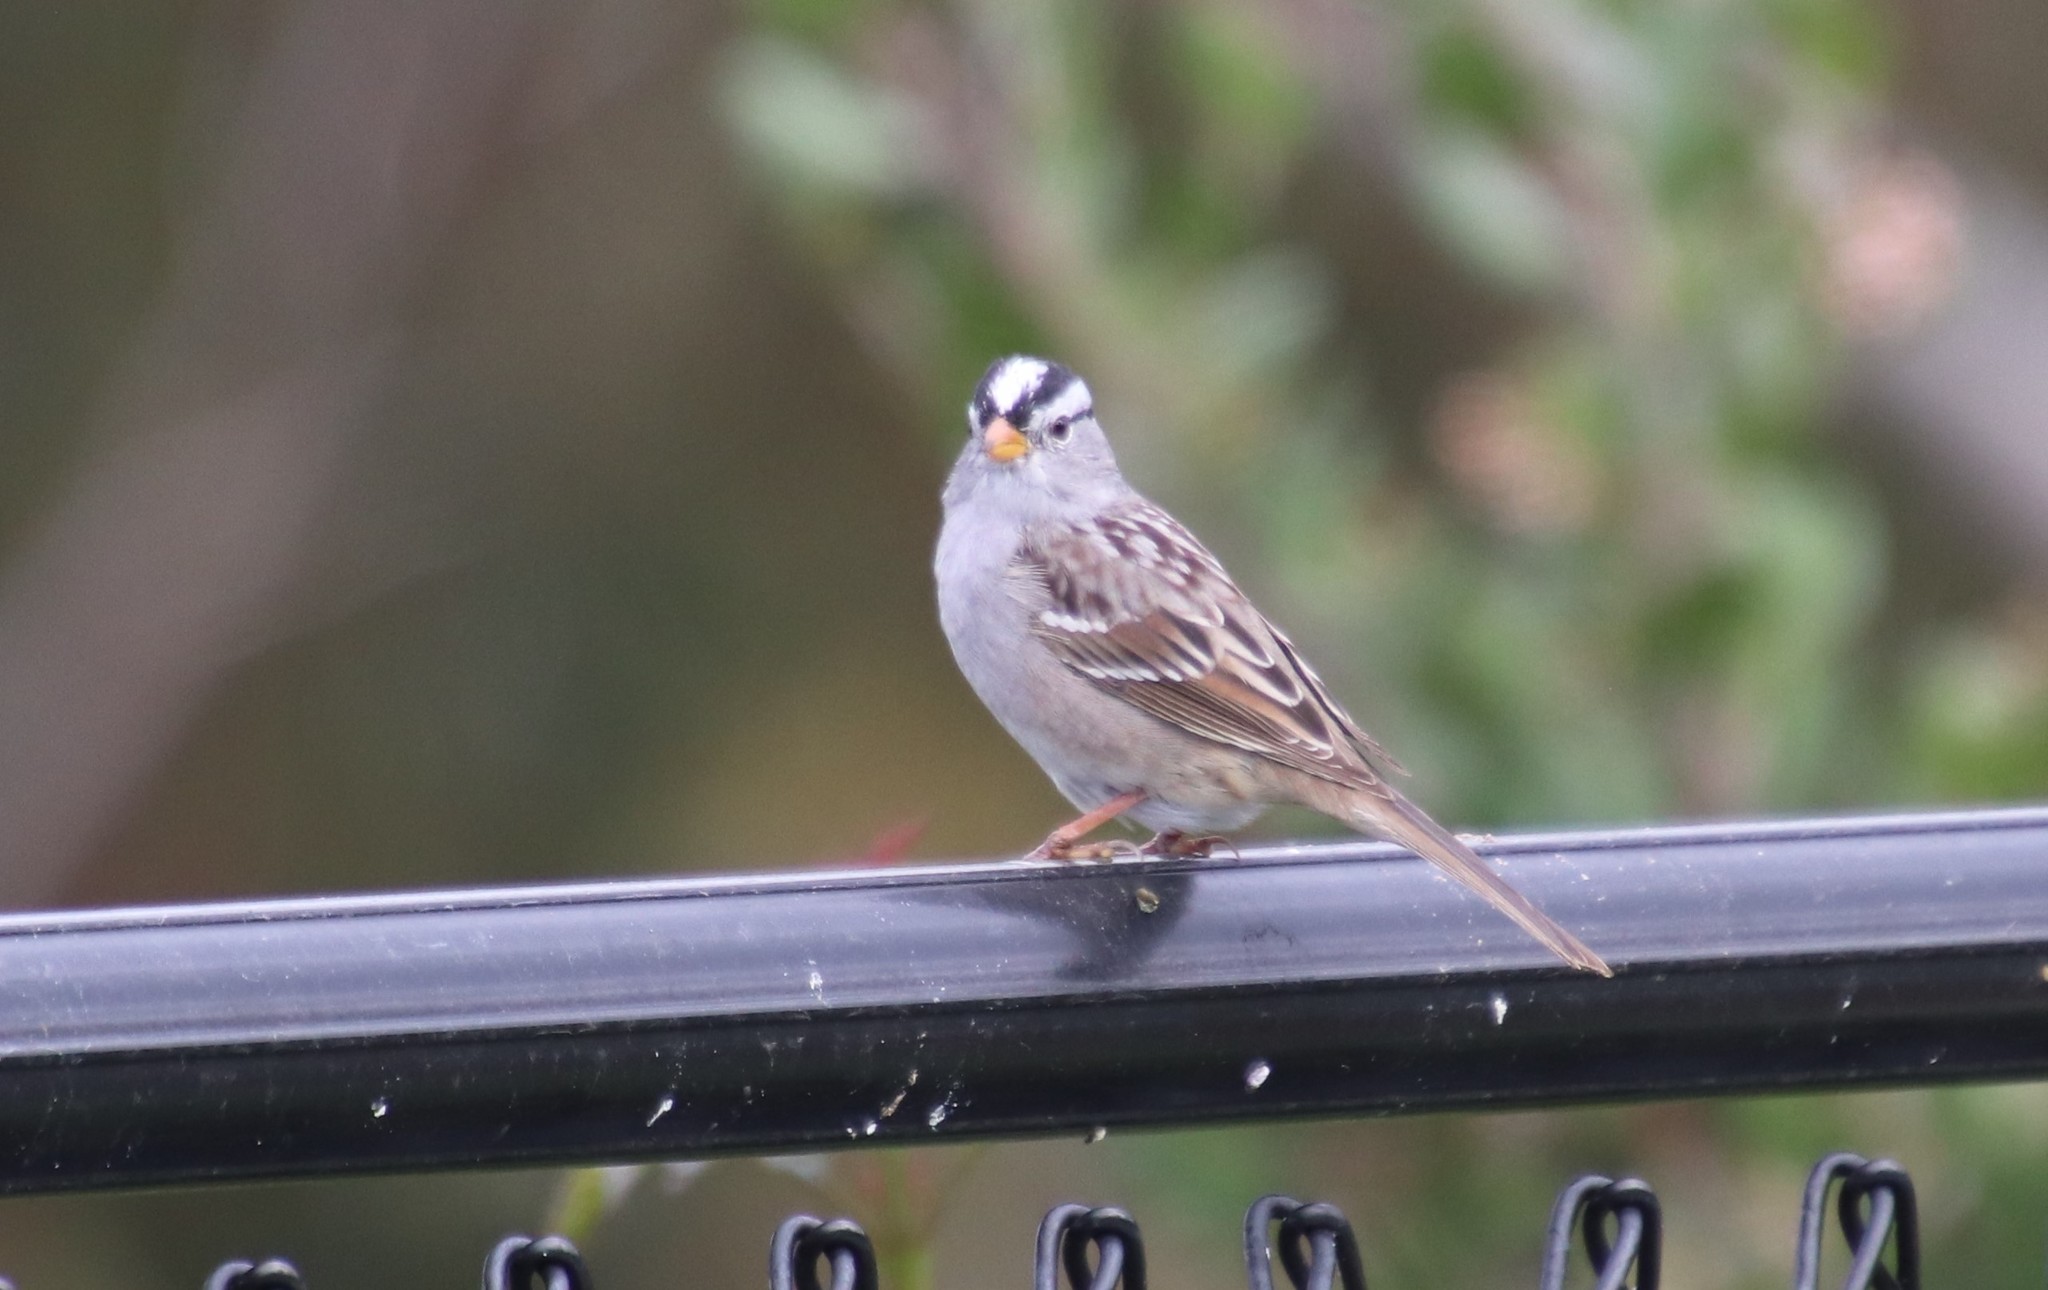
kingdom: Animalia
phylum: Chordata
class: Aves
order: Passeriformes
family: Passerellidae
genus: Zonotrichia
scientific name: Zonotrichia leucophrys
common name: White-crowned sparrow
